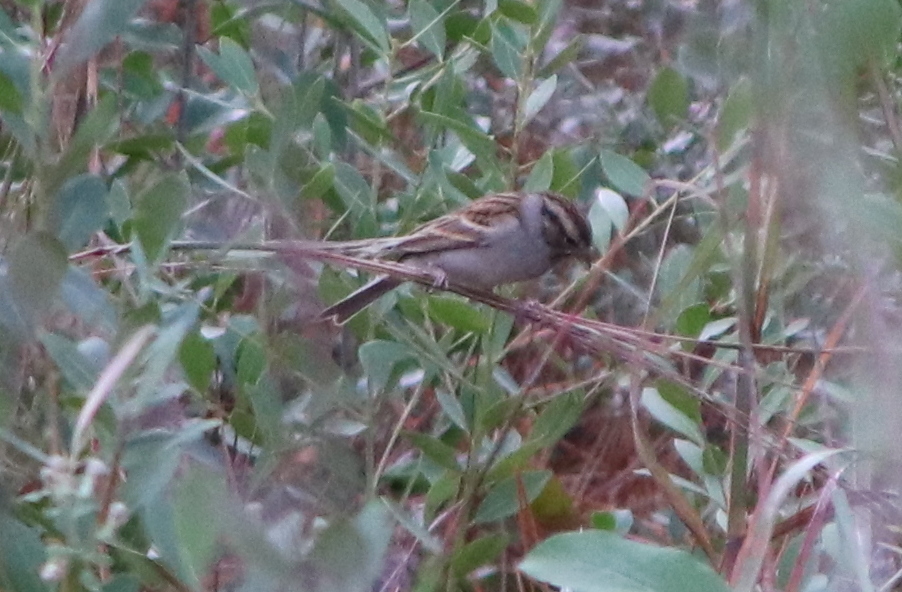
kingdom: Animalia
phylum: Chordata
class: Aves
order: Passeriformes
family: Passerellidae
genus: Spizella
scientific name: Spizella passerina
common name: Chipping sparrow
